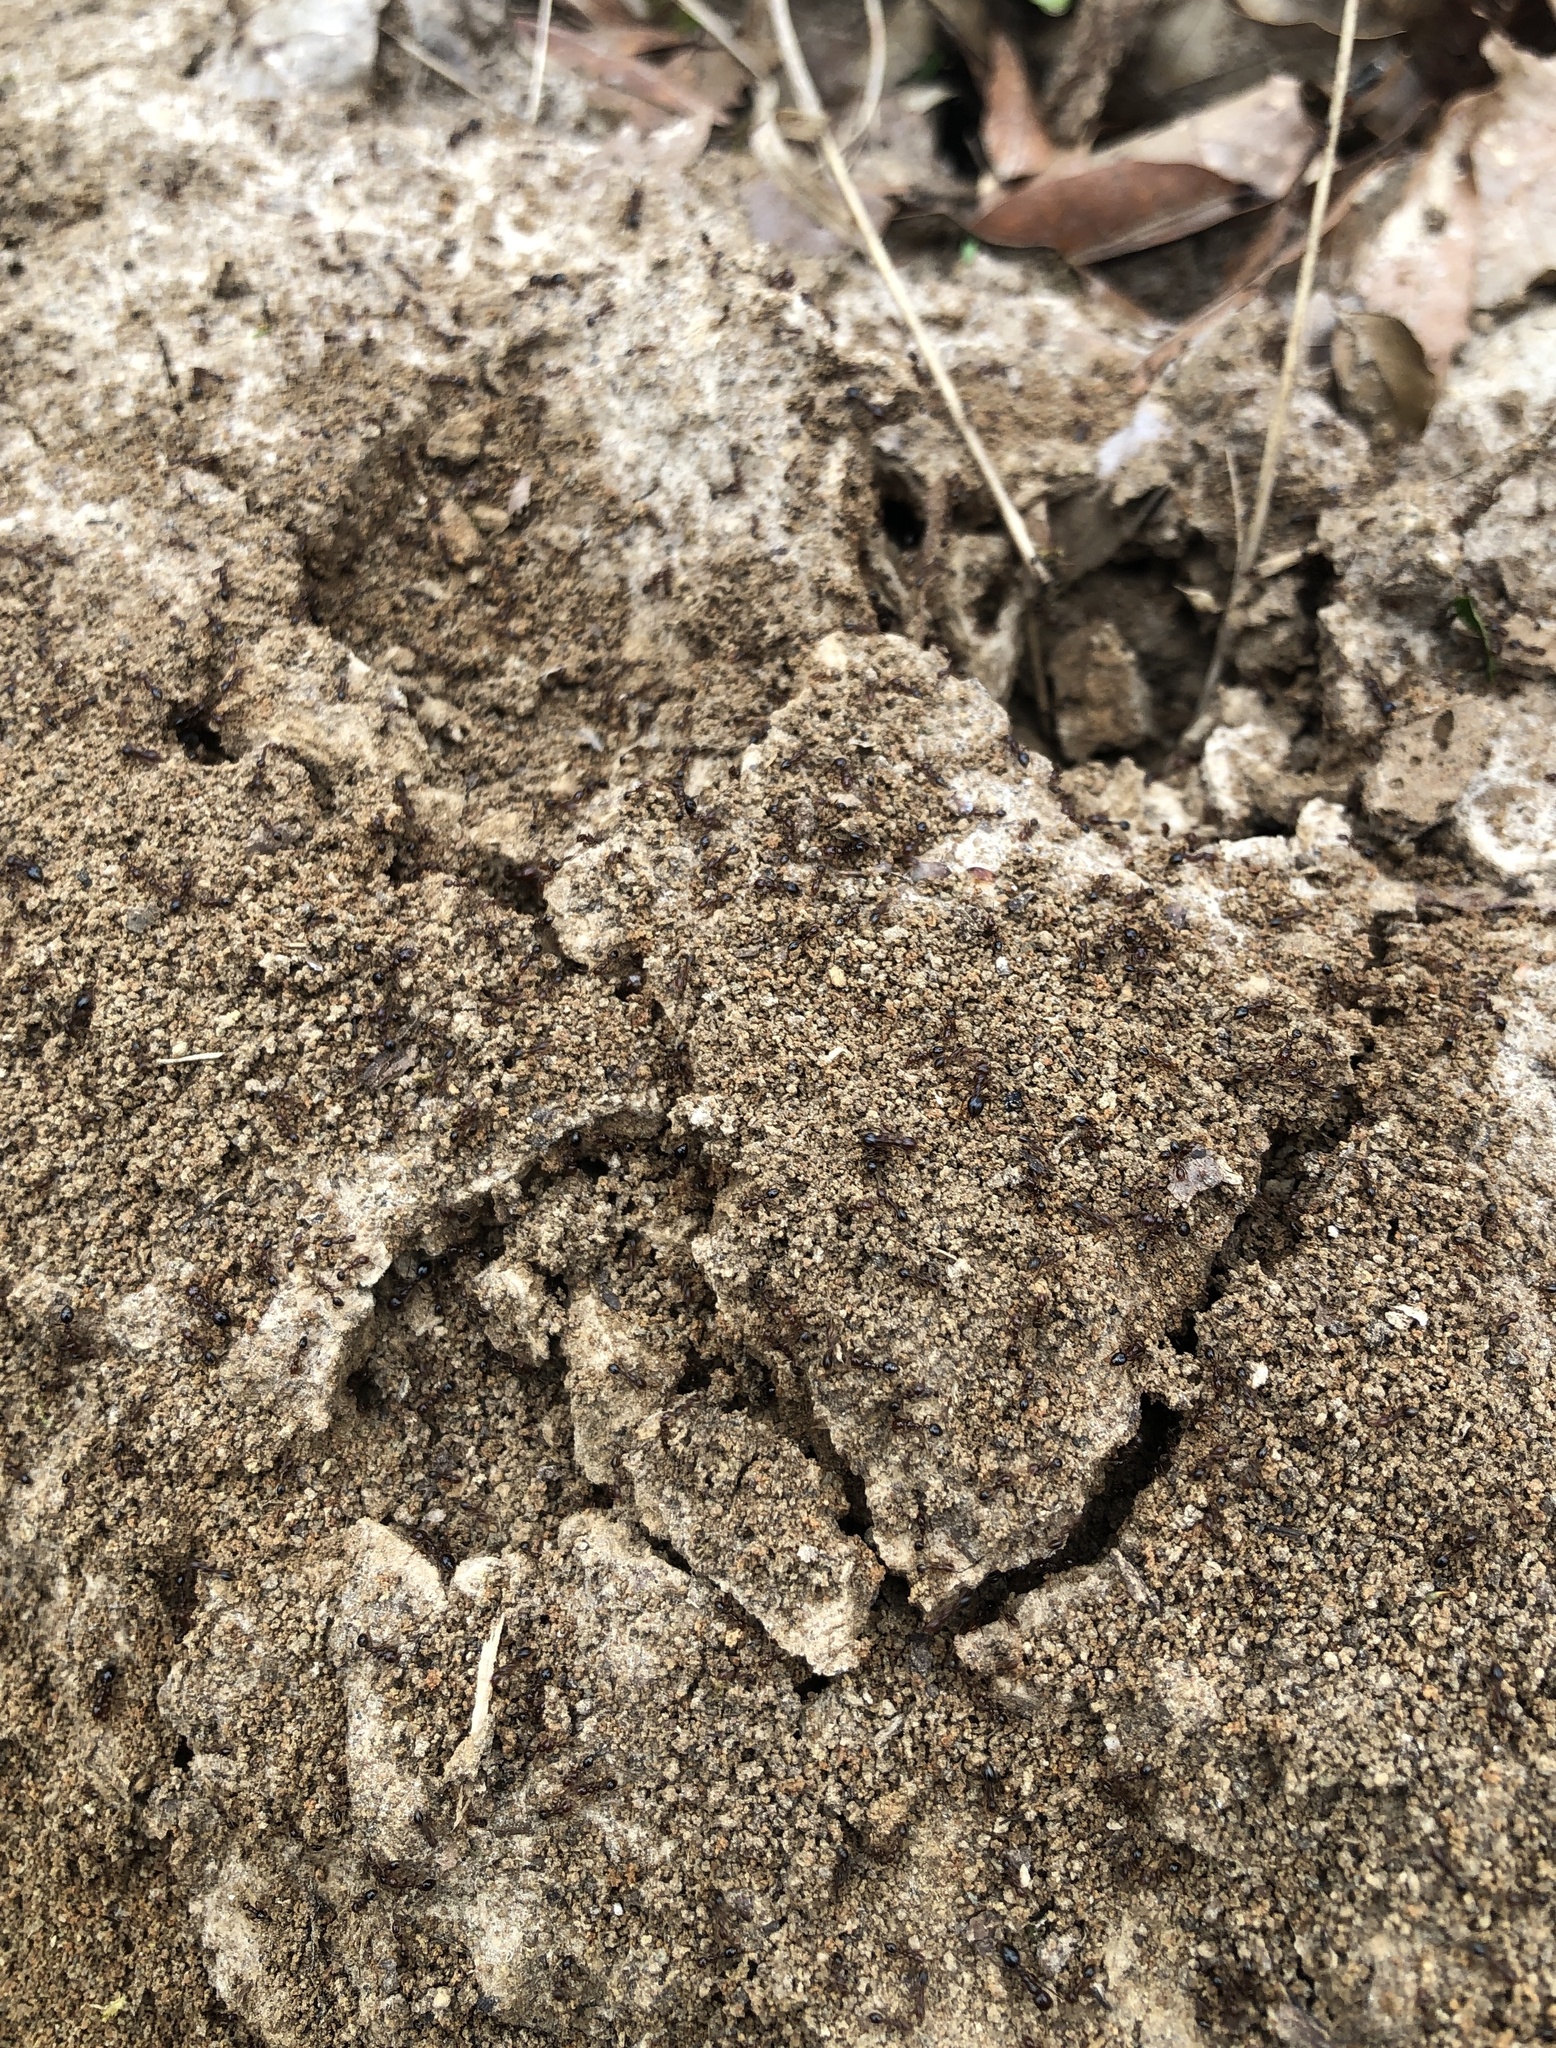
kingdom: Animalia
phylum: Arthropoda
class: Insecta
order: Hymenoptera
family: Formicidae
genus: Solenopsis
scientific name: Solenopsis invicta
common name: Red imported fire ant
